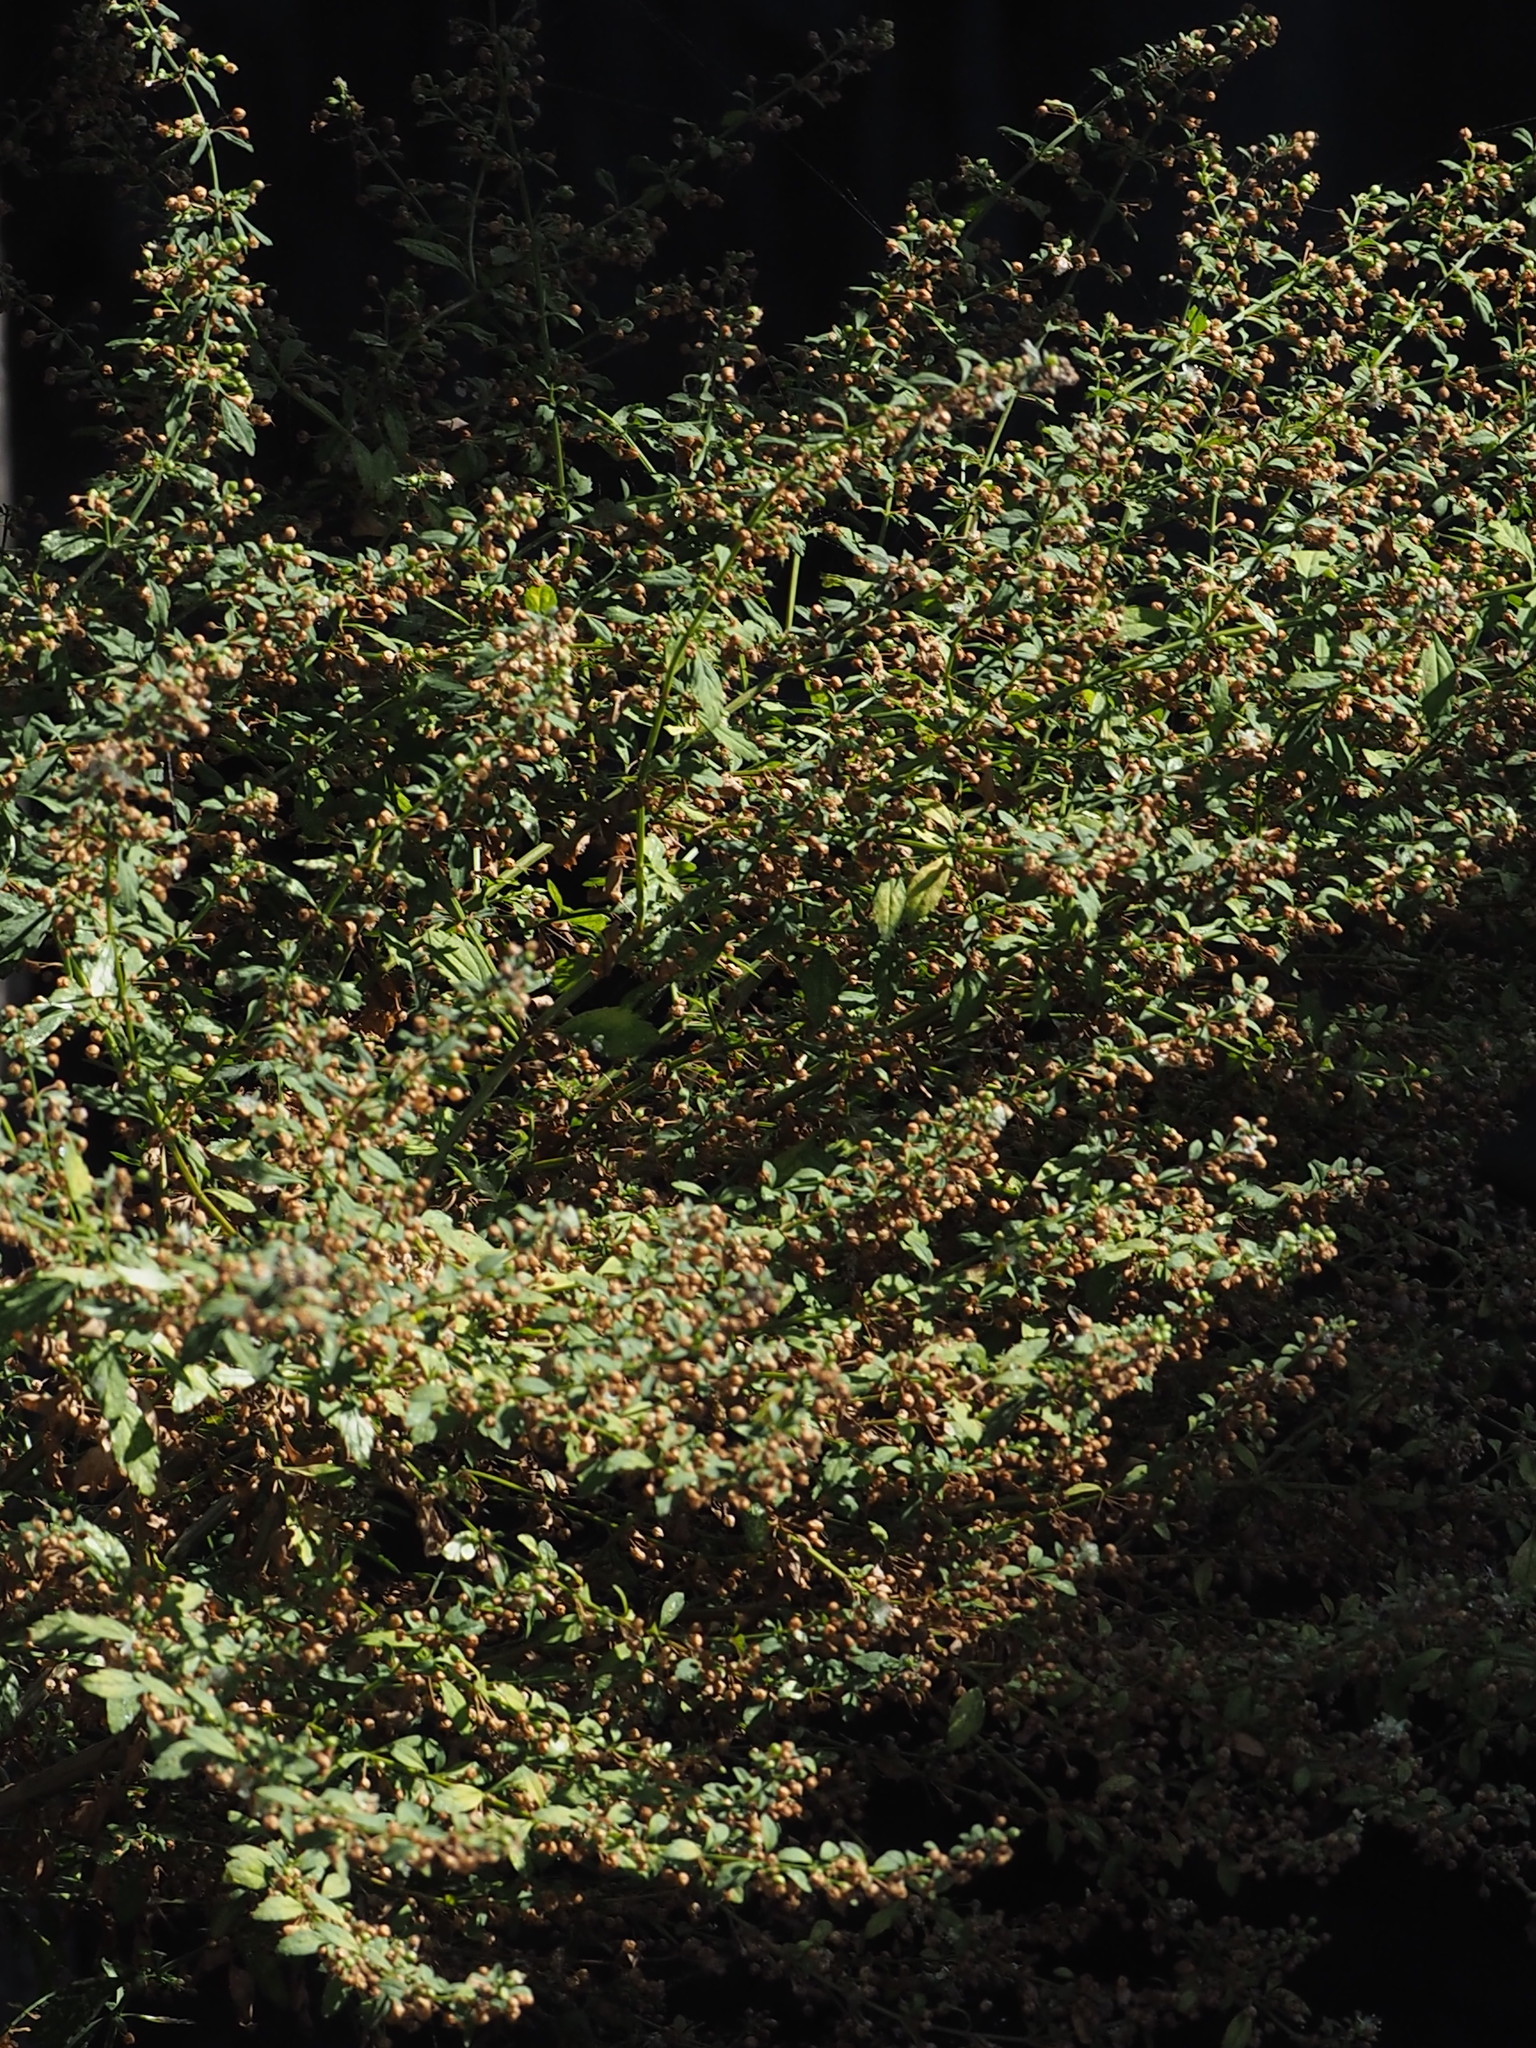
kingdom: Plantae
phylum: Tracheophyta
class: Magnoliopsida
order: Lamiales
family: Plantaginaceae
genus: Scoparia
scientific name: Scoparia dulcis
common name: Scoparia-weed
